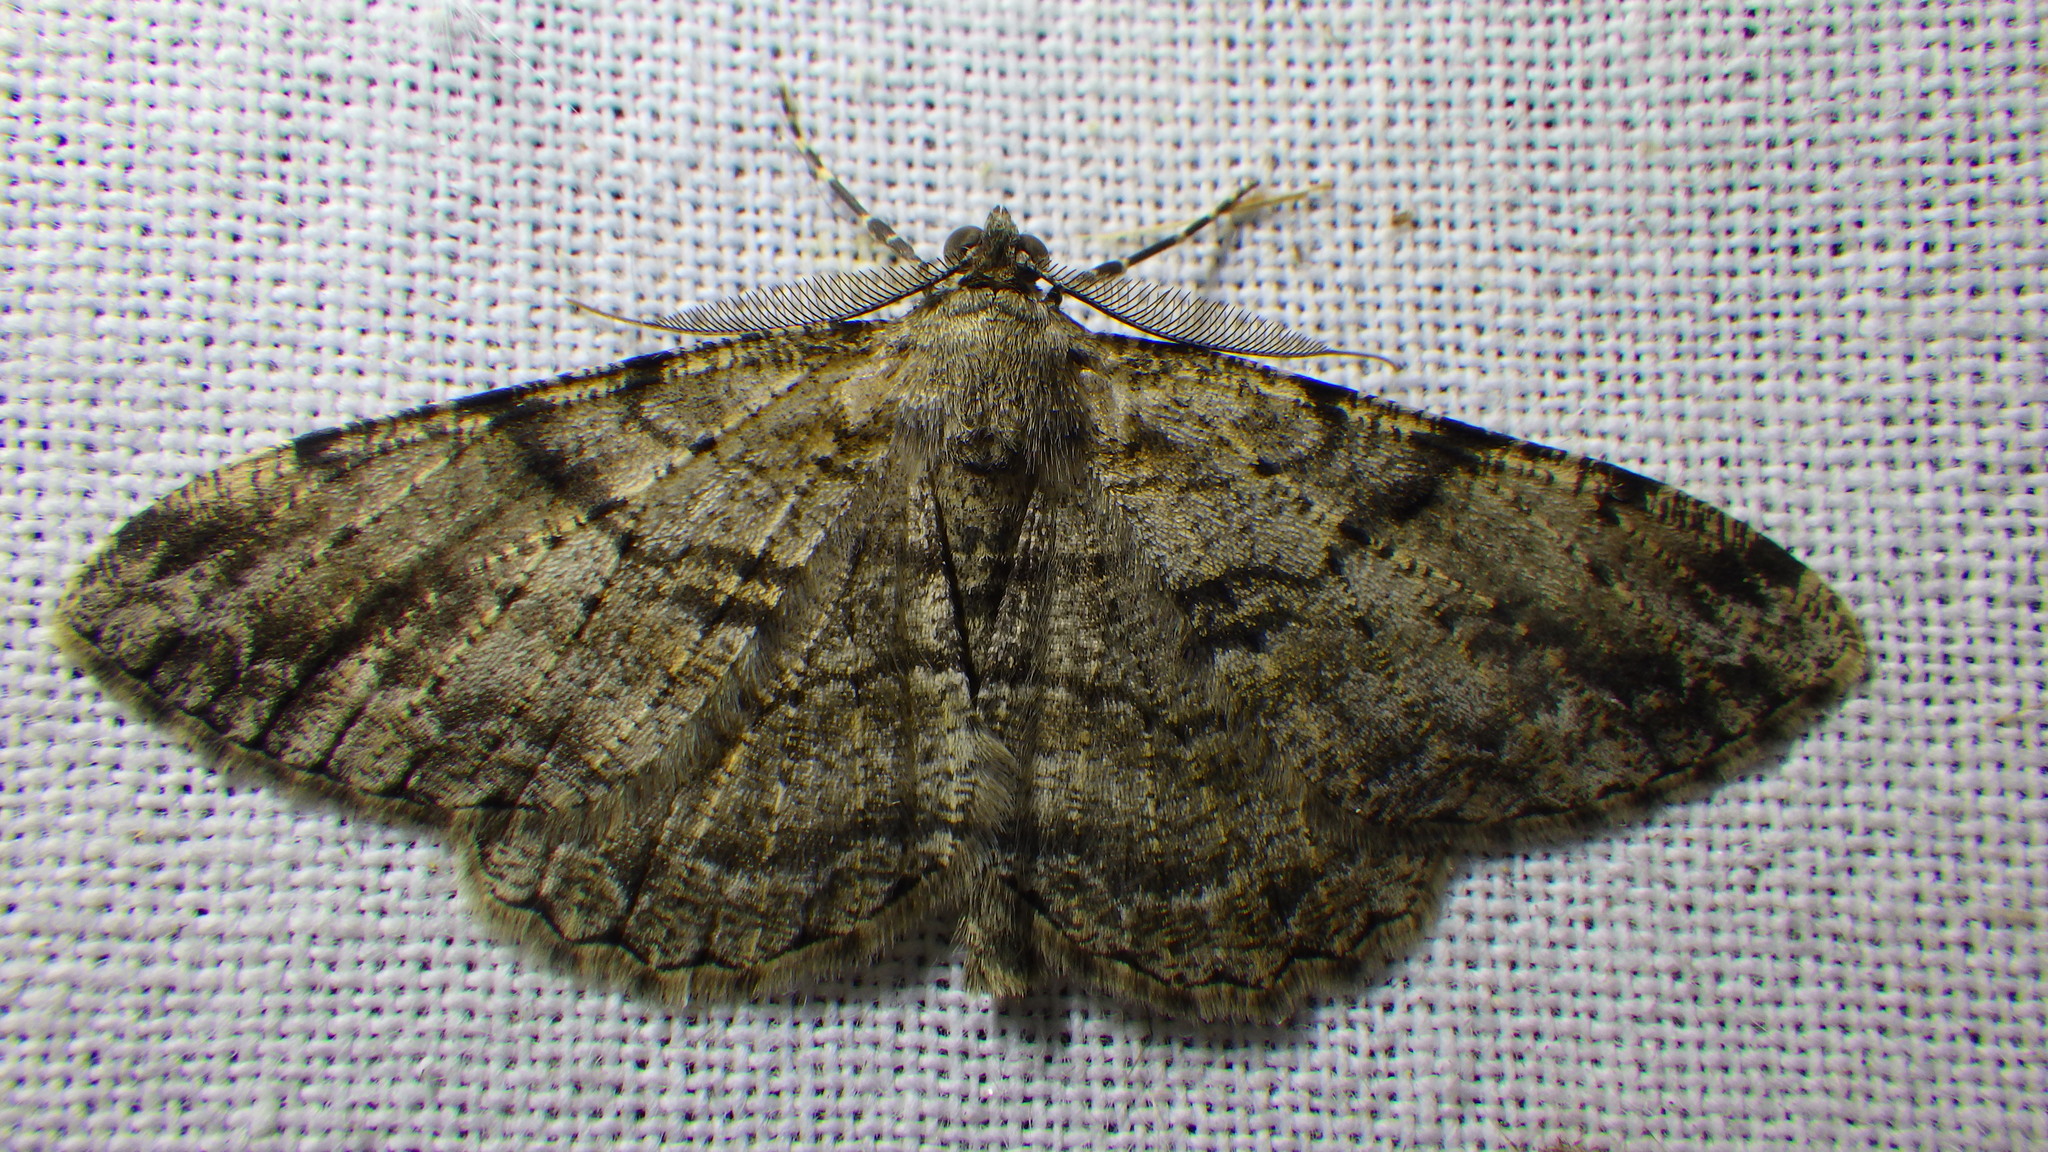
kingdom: Animalia
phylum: Arthropoda
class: Insecta
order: Lepidoptera
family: Geometridae
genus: Peribatodes
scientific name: Peribatodes rhomboidaria
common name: Willow beauty
